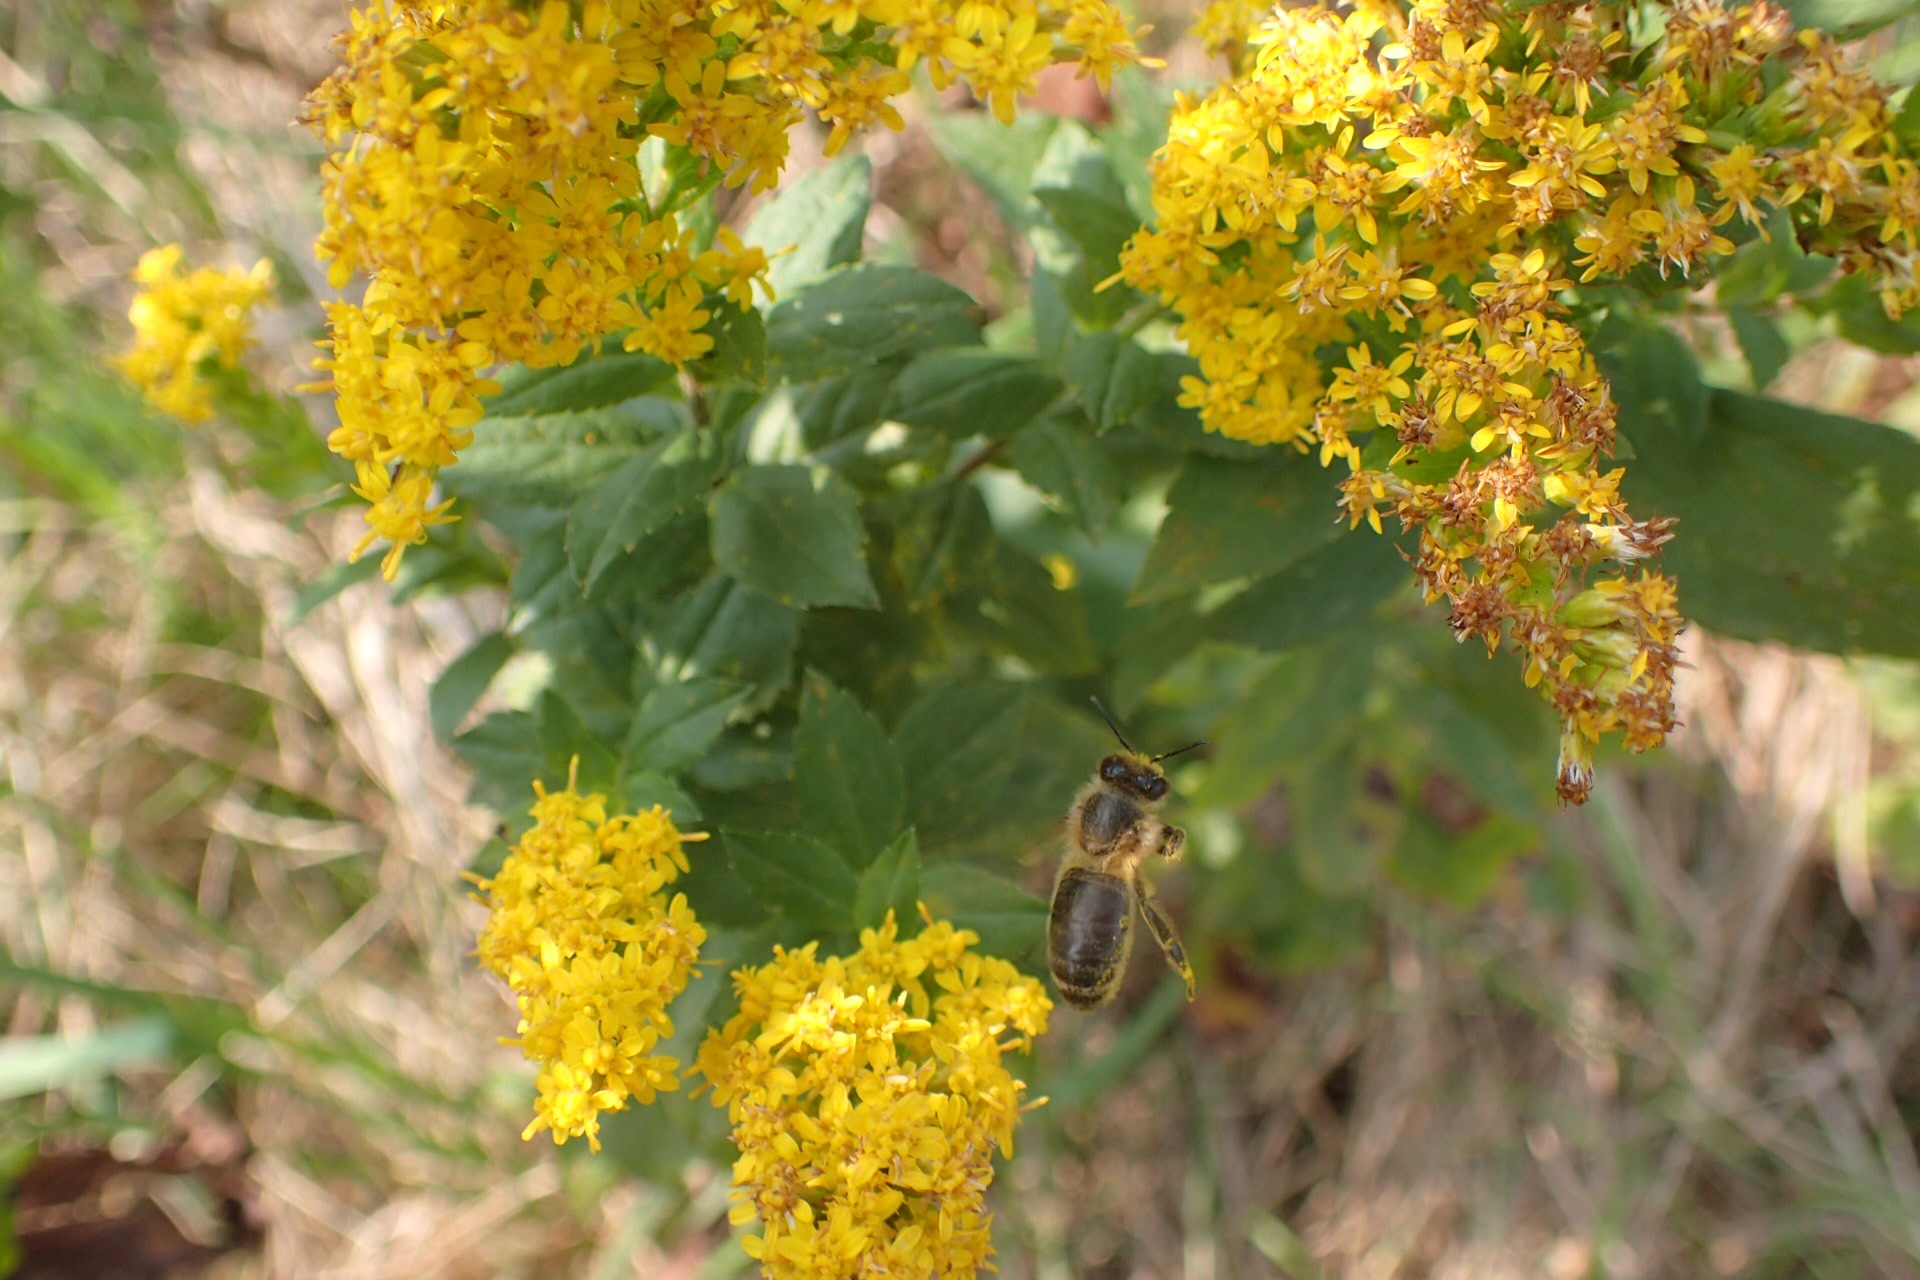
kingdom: Animalia
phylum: Arthropoda
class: Insecta
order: Hymenoptera
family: Apidae
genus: Apis
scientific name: Apis mellifera
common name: Honey bee
